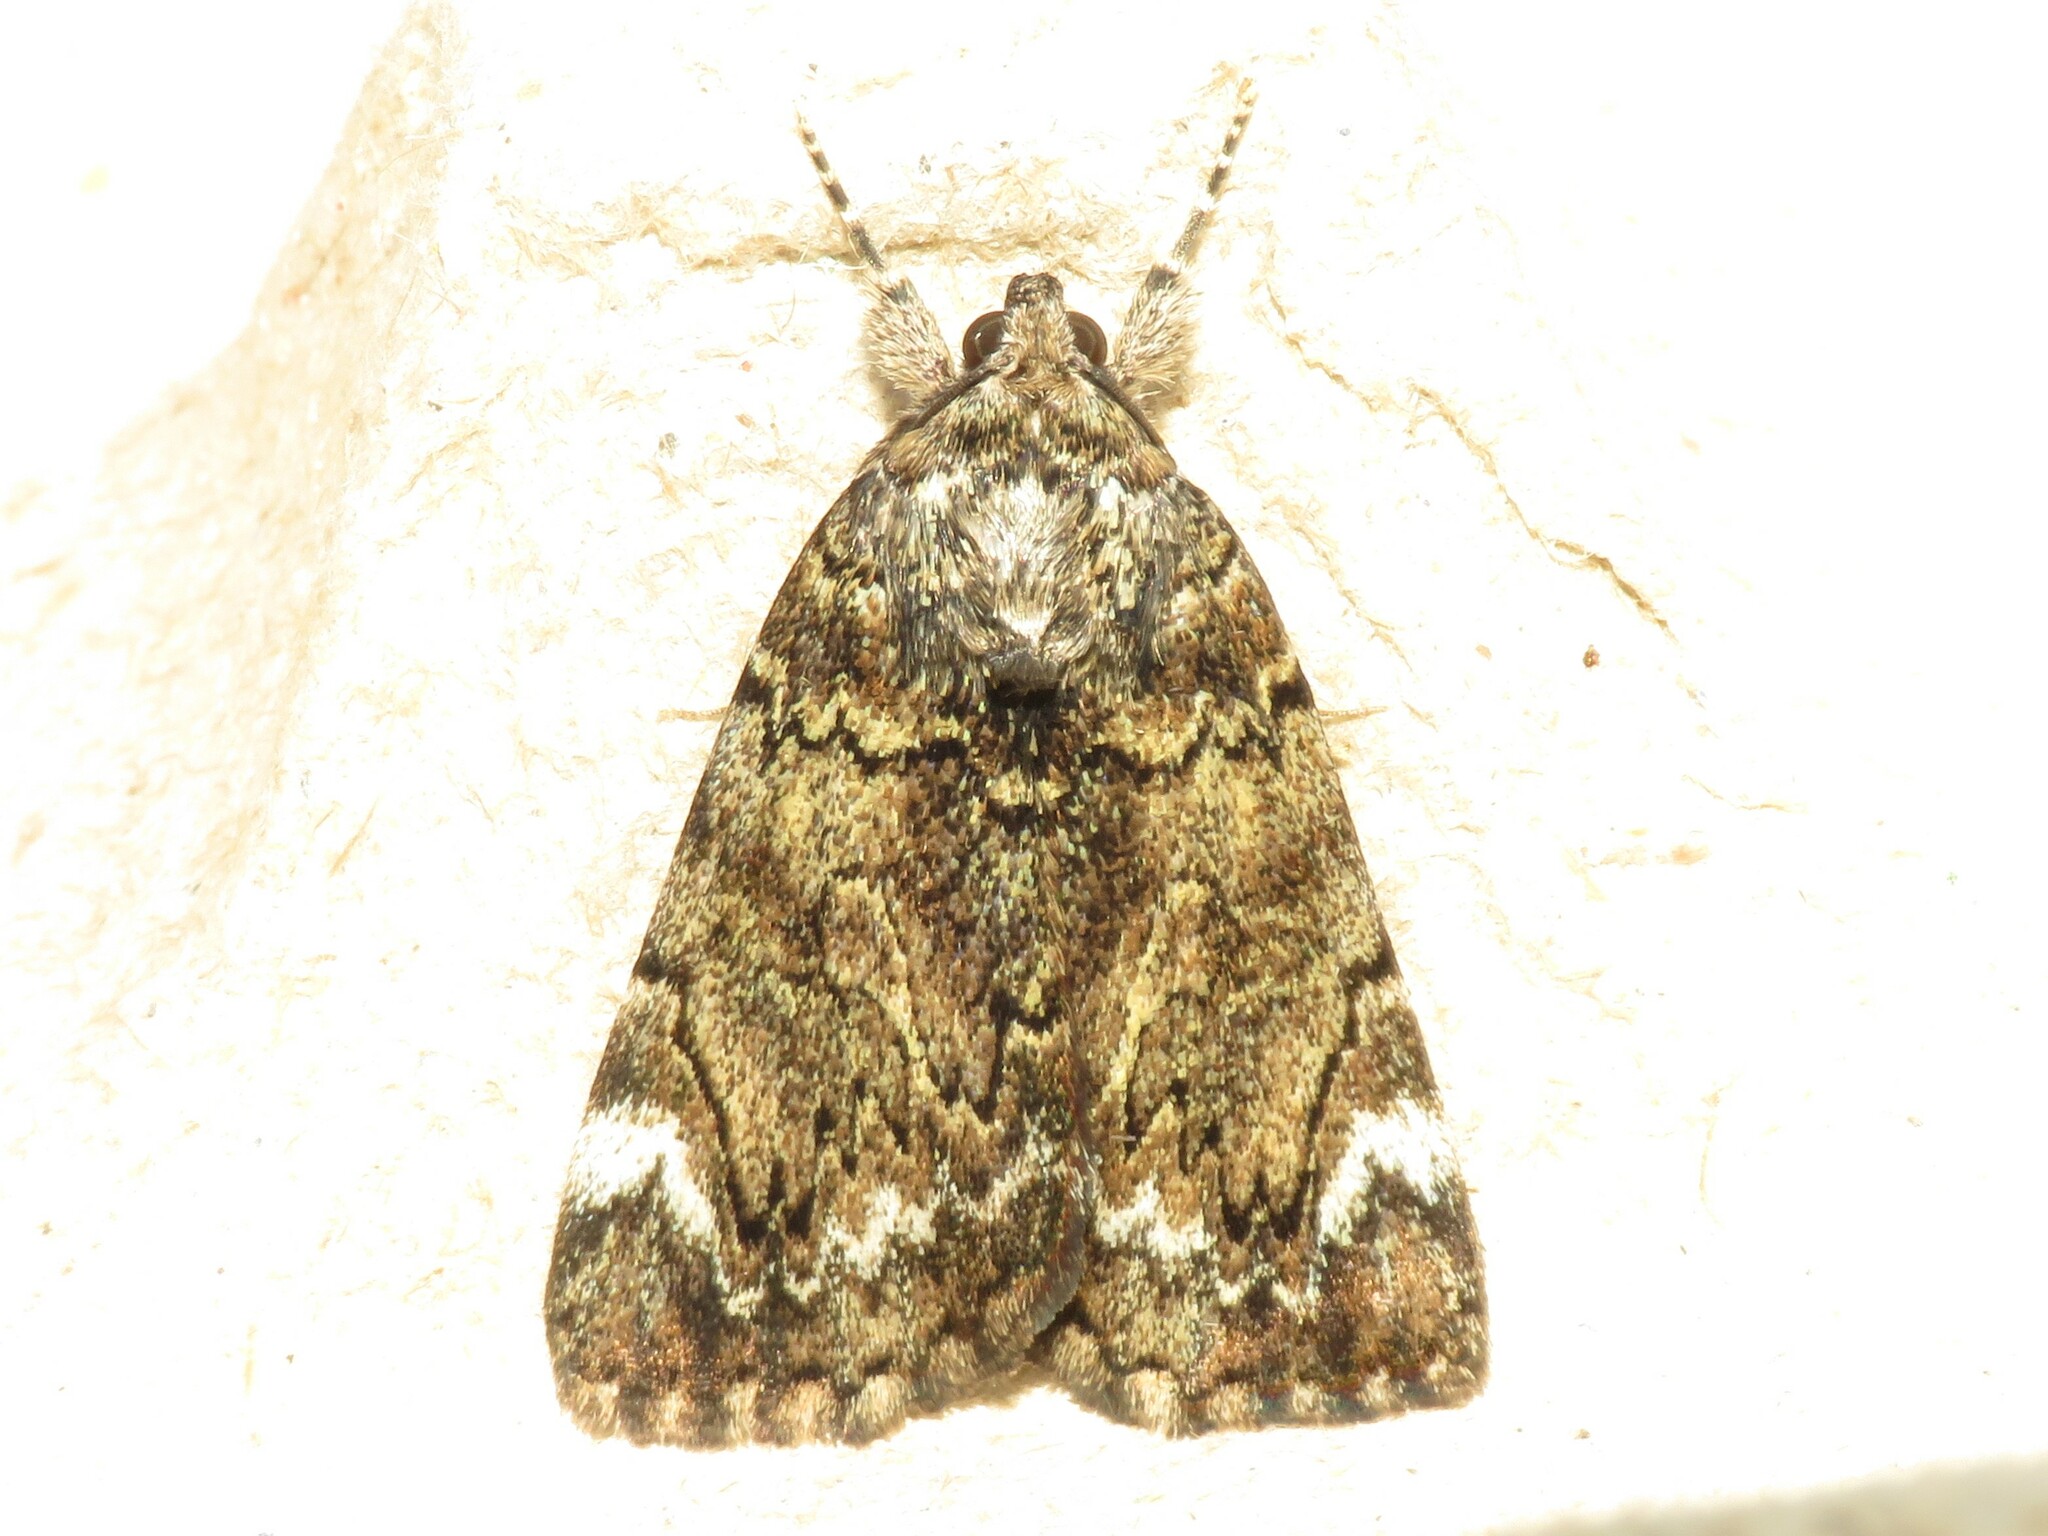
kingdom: Animalia
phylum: Arthropoda
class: Insecta
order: Lepidoptera
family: Erebidae
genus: Catocala
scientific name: Catocala minuta
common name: Little underwing
